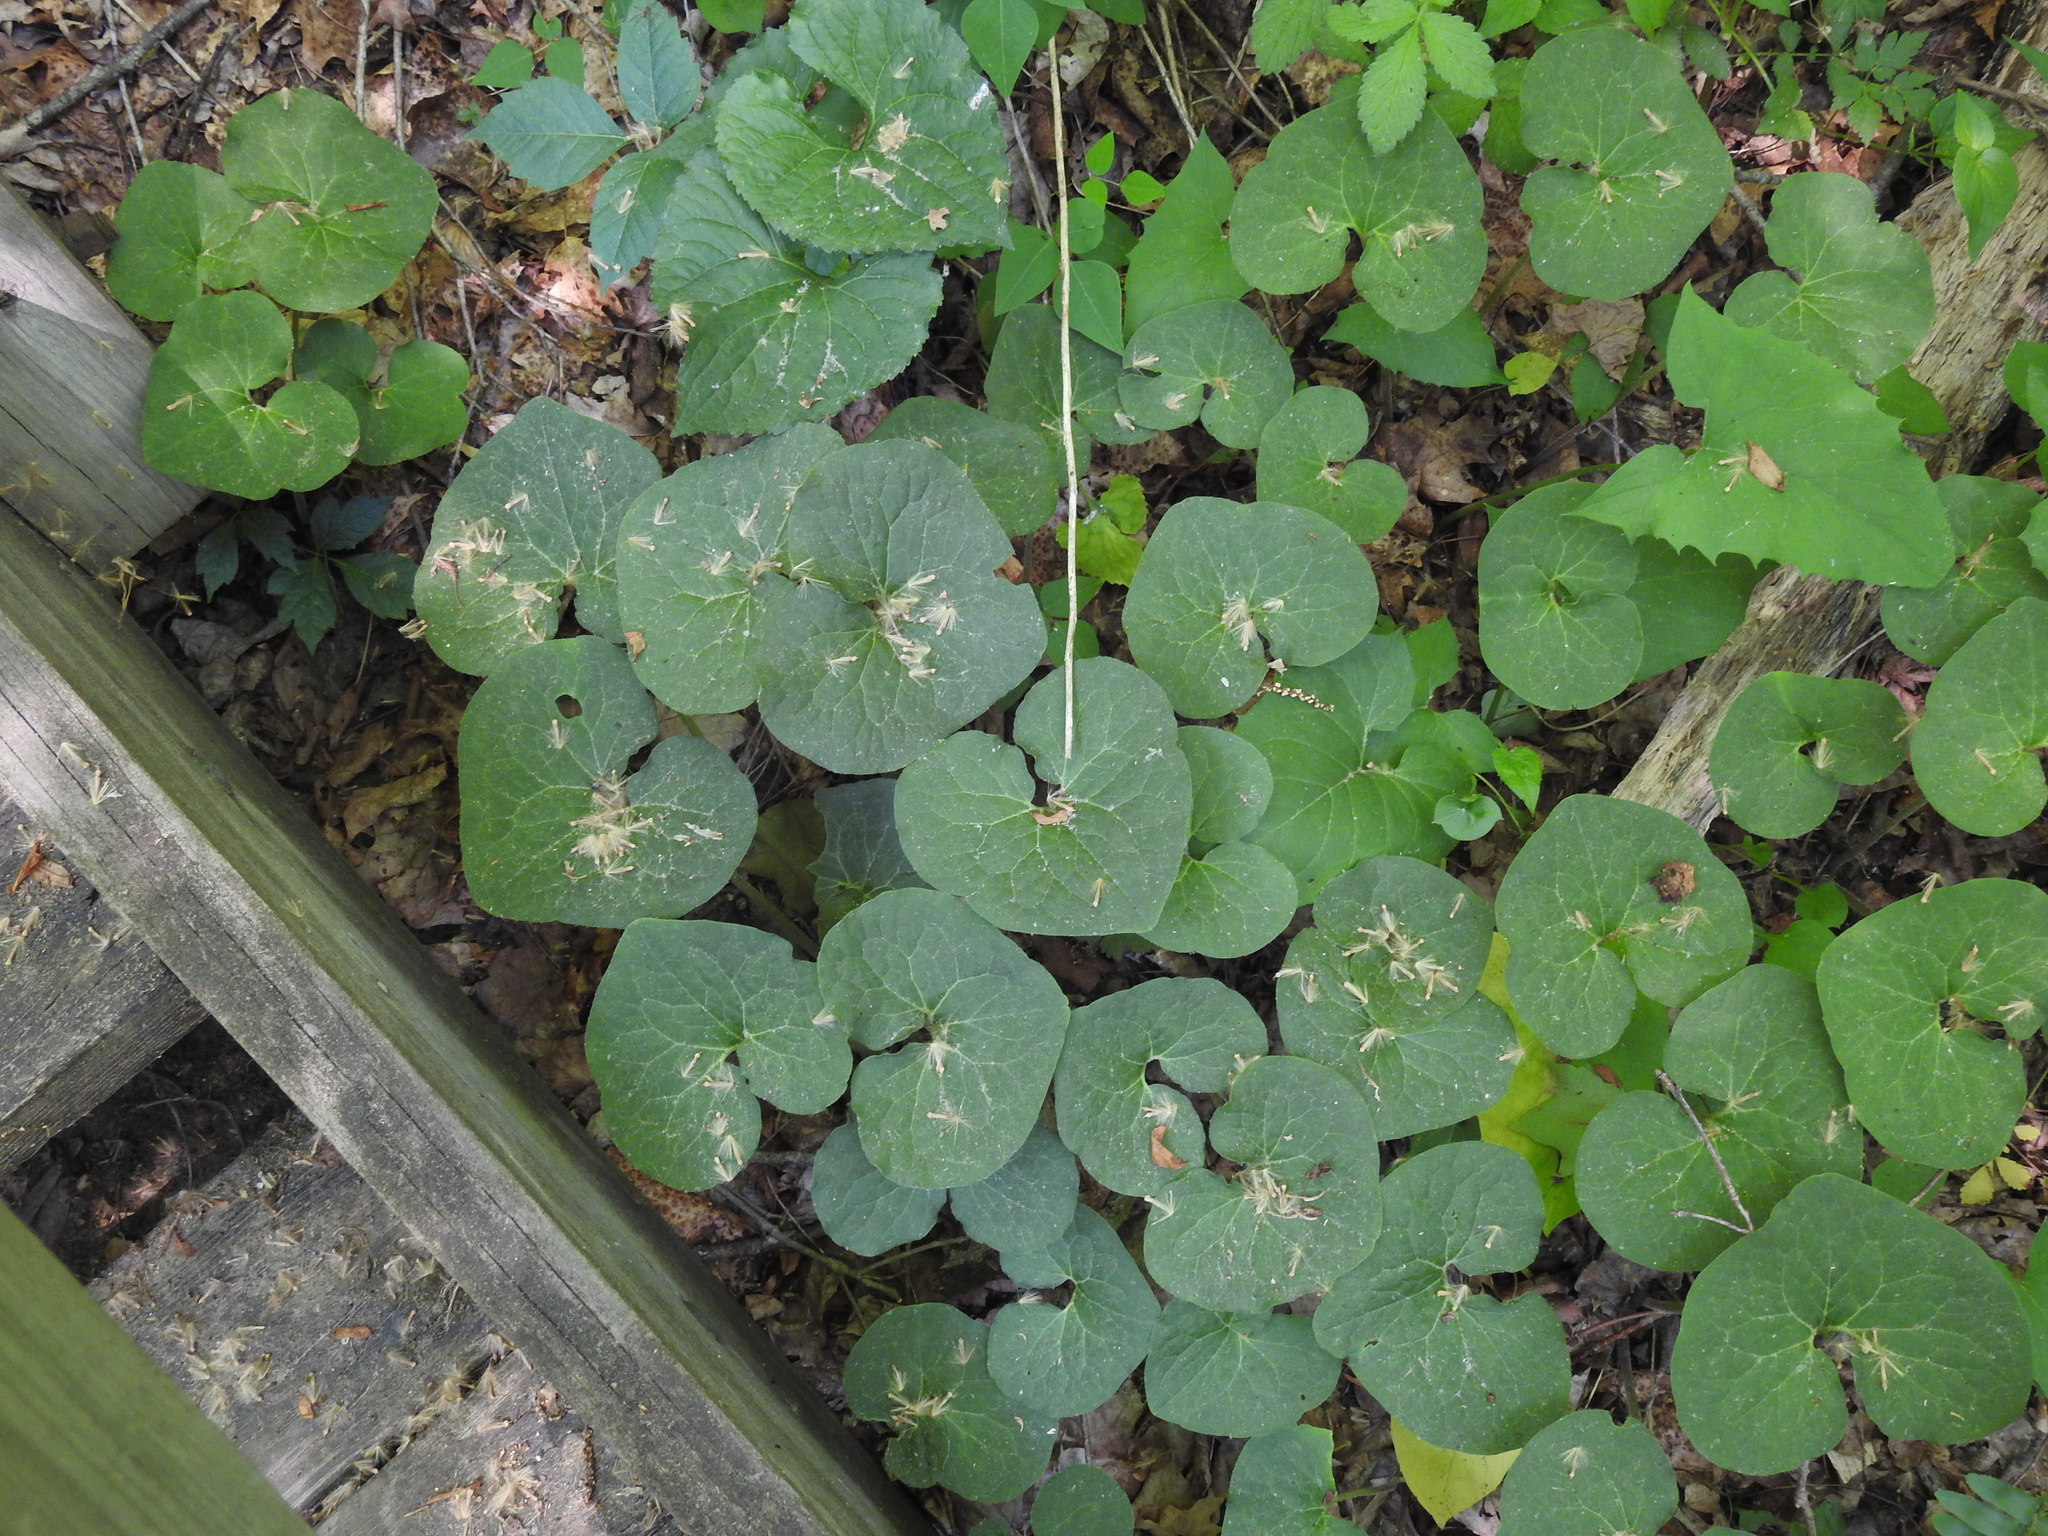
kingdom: Plantae
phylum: Tracheophyta
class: Magnoliopsida
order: Piperales
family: Aristolochiaceae
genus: Asarum
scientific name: Asarum canadense
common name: Wild ginger
